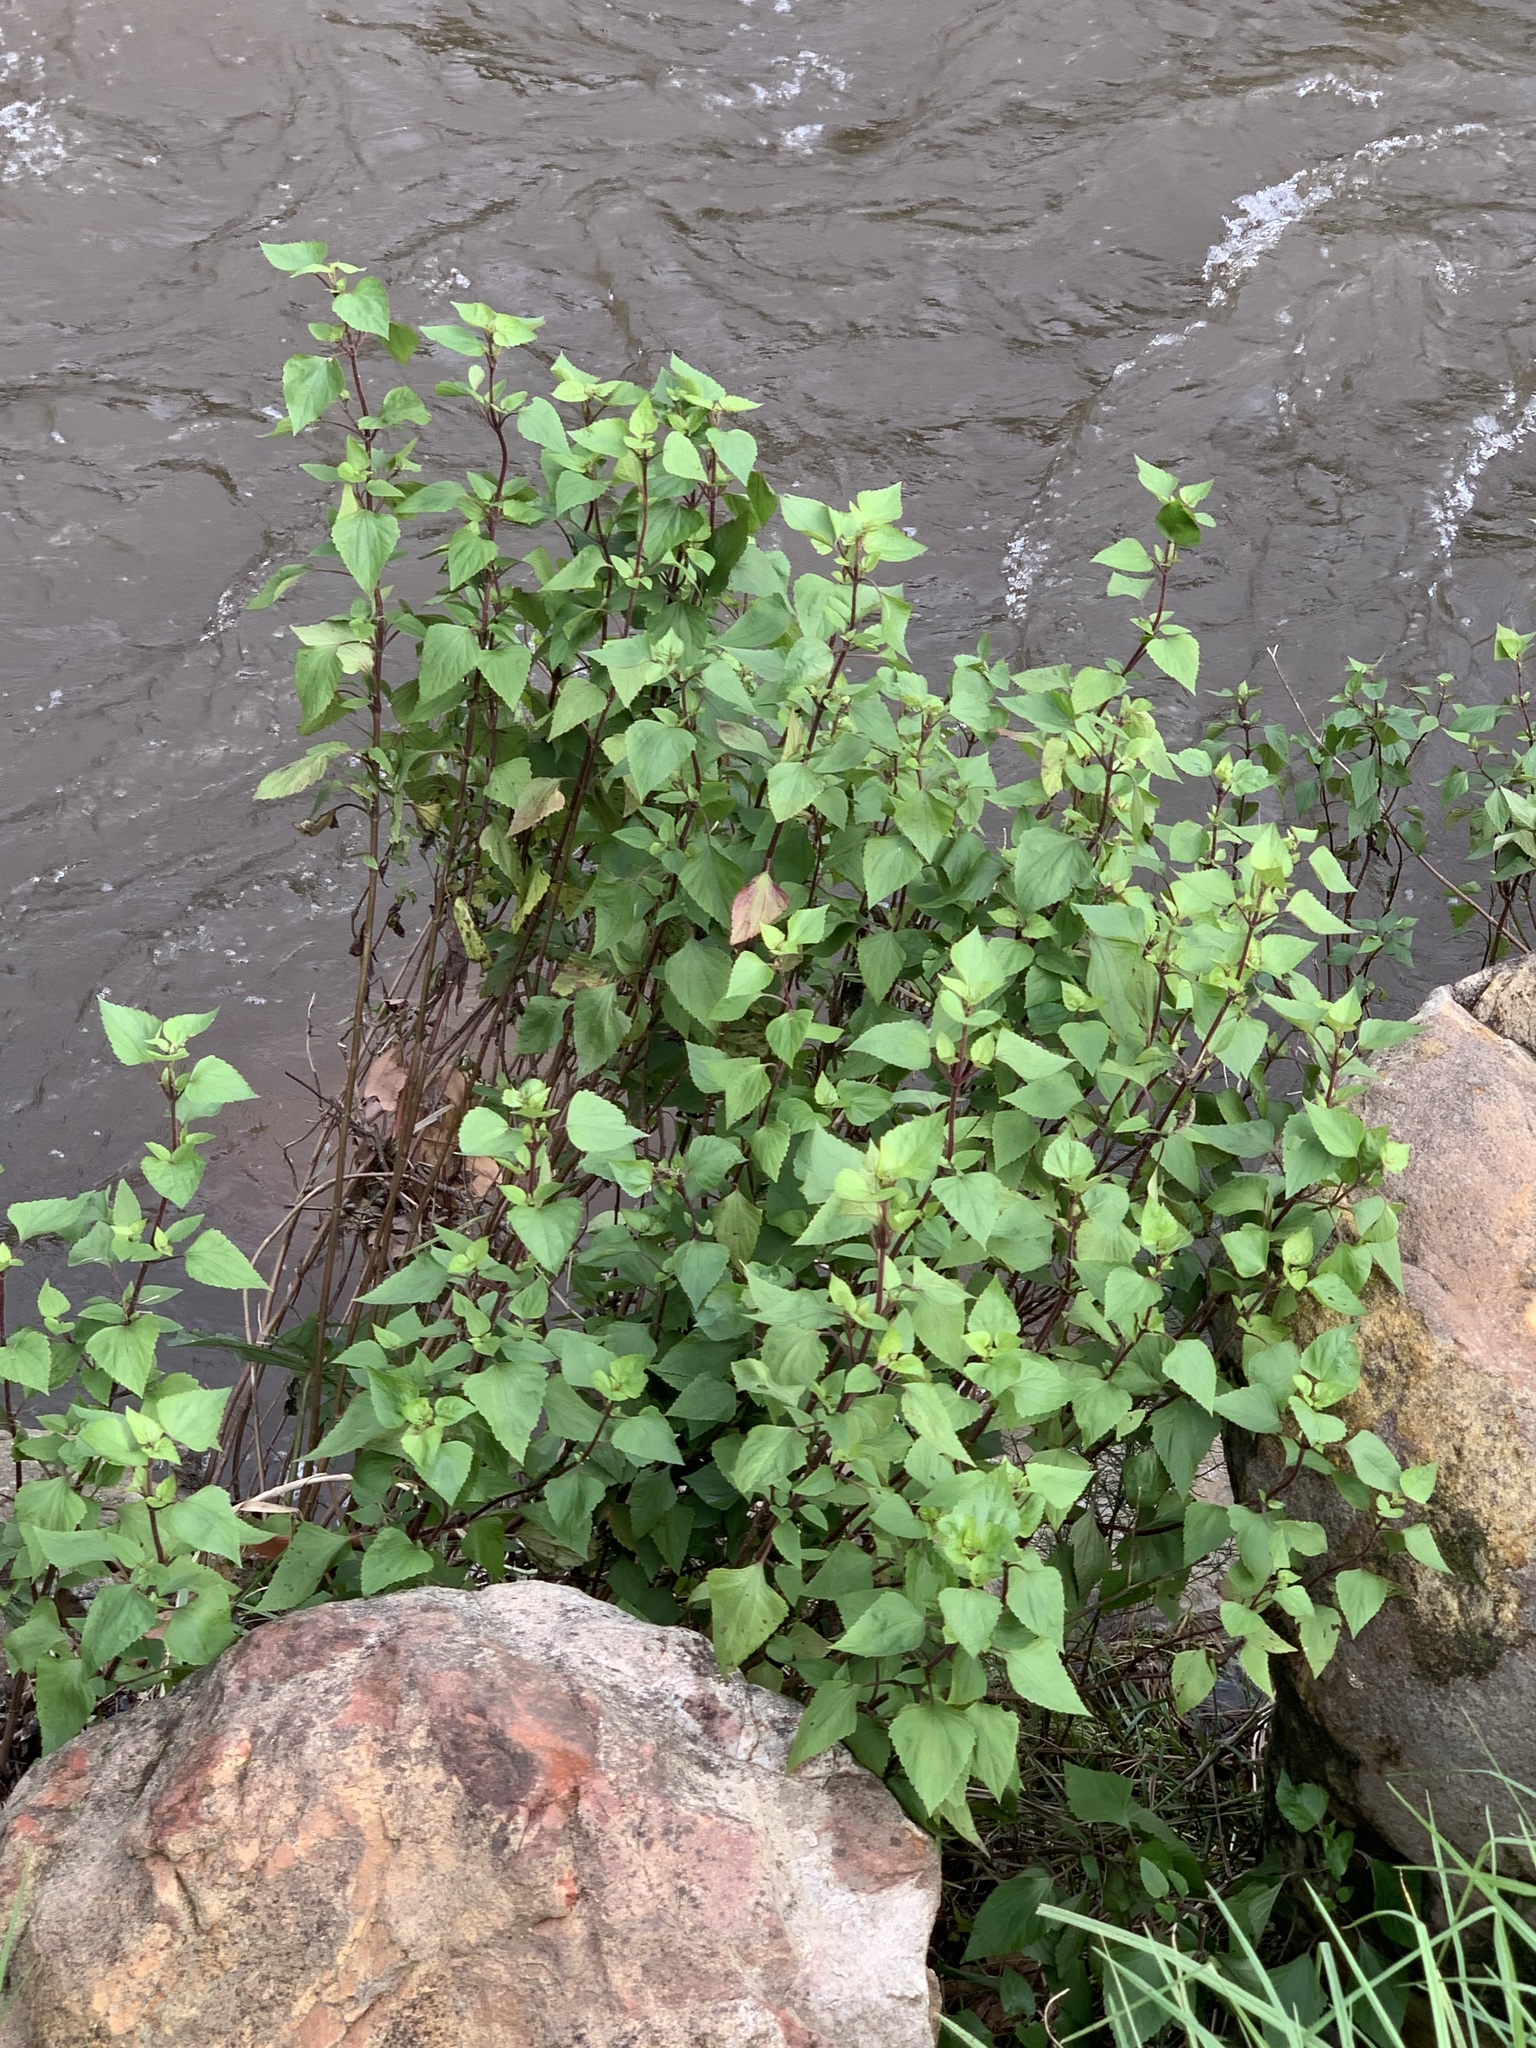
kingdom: Plantae
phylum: Tracheophyta
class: Magnoliopsida
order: Asterales
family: Asteraceae
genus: Ageratina
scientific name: Ageratina adenophora
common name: Sticky snakeroot
